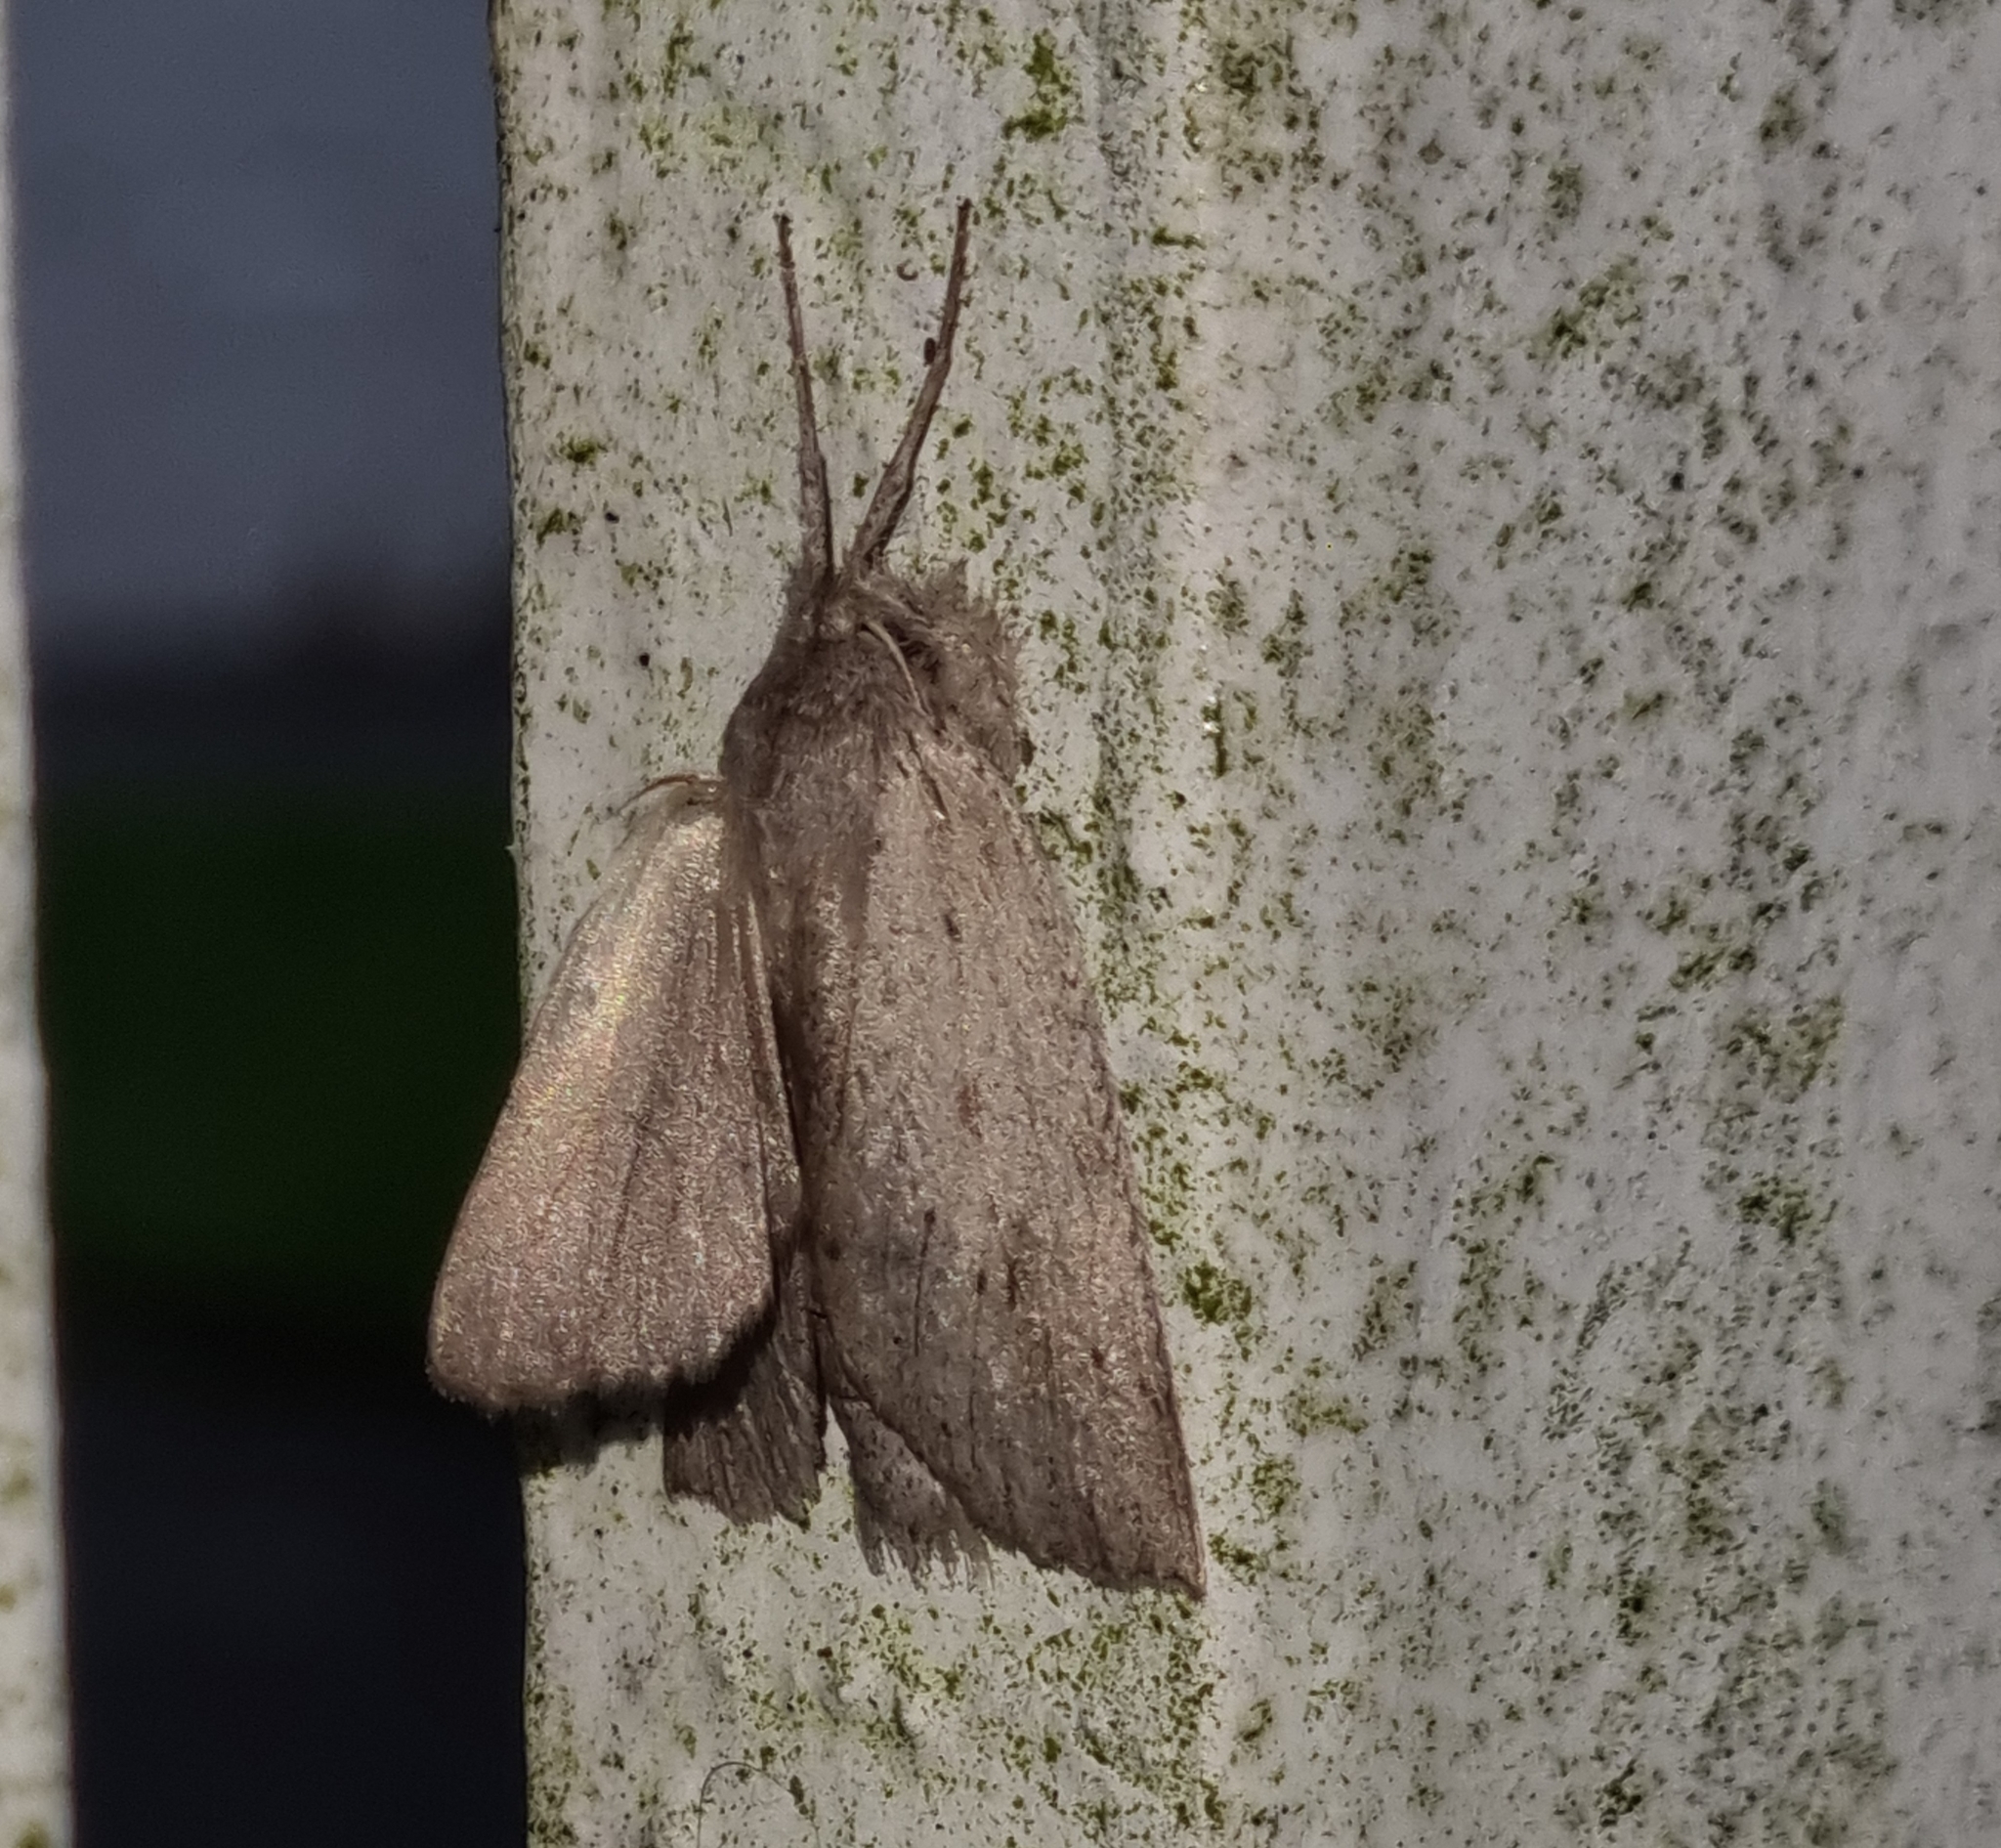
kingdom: Animalia
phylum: Arthropoda
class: Insecta
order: Lepidoptera
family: Geometridae
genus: Declana
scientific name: Declana leptomera
